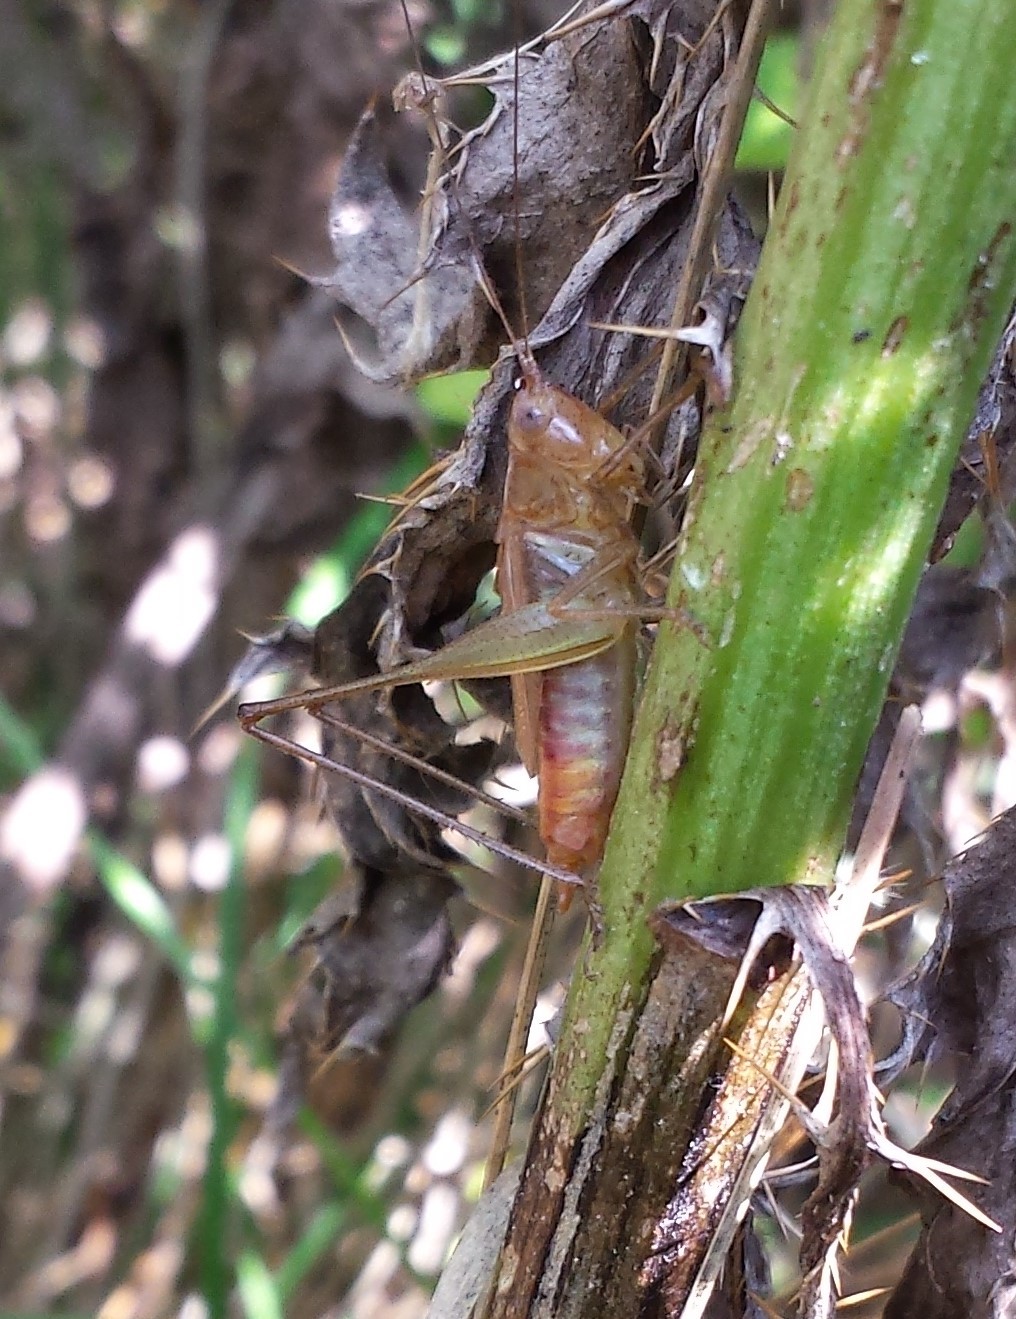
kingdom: Animalia
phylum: Arthropoda
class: Insecta
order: Orthoptera
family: Tettigoniidae
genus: Conocephalus
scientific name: Conocephalus brevipennis
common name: Short-winged meadow katydid
